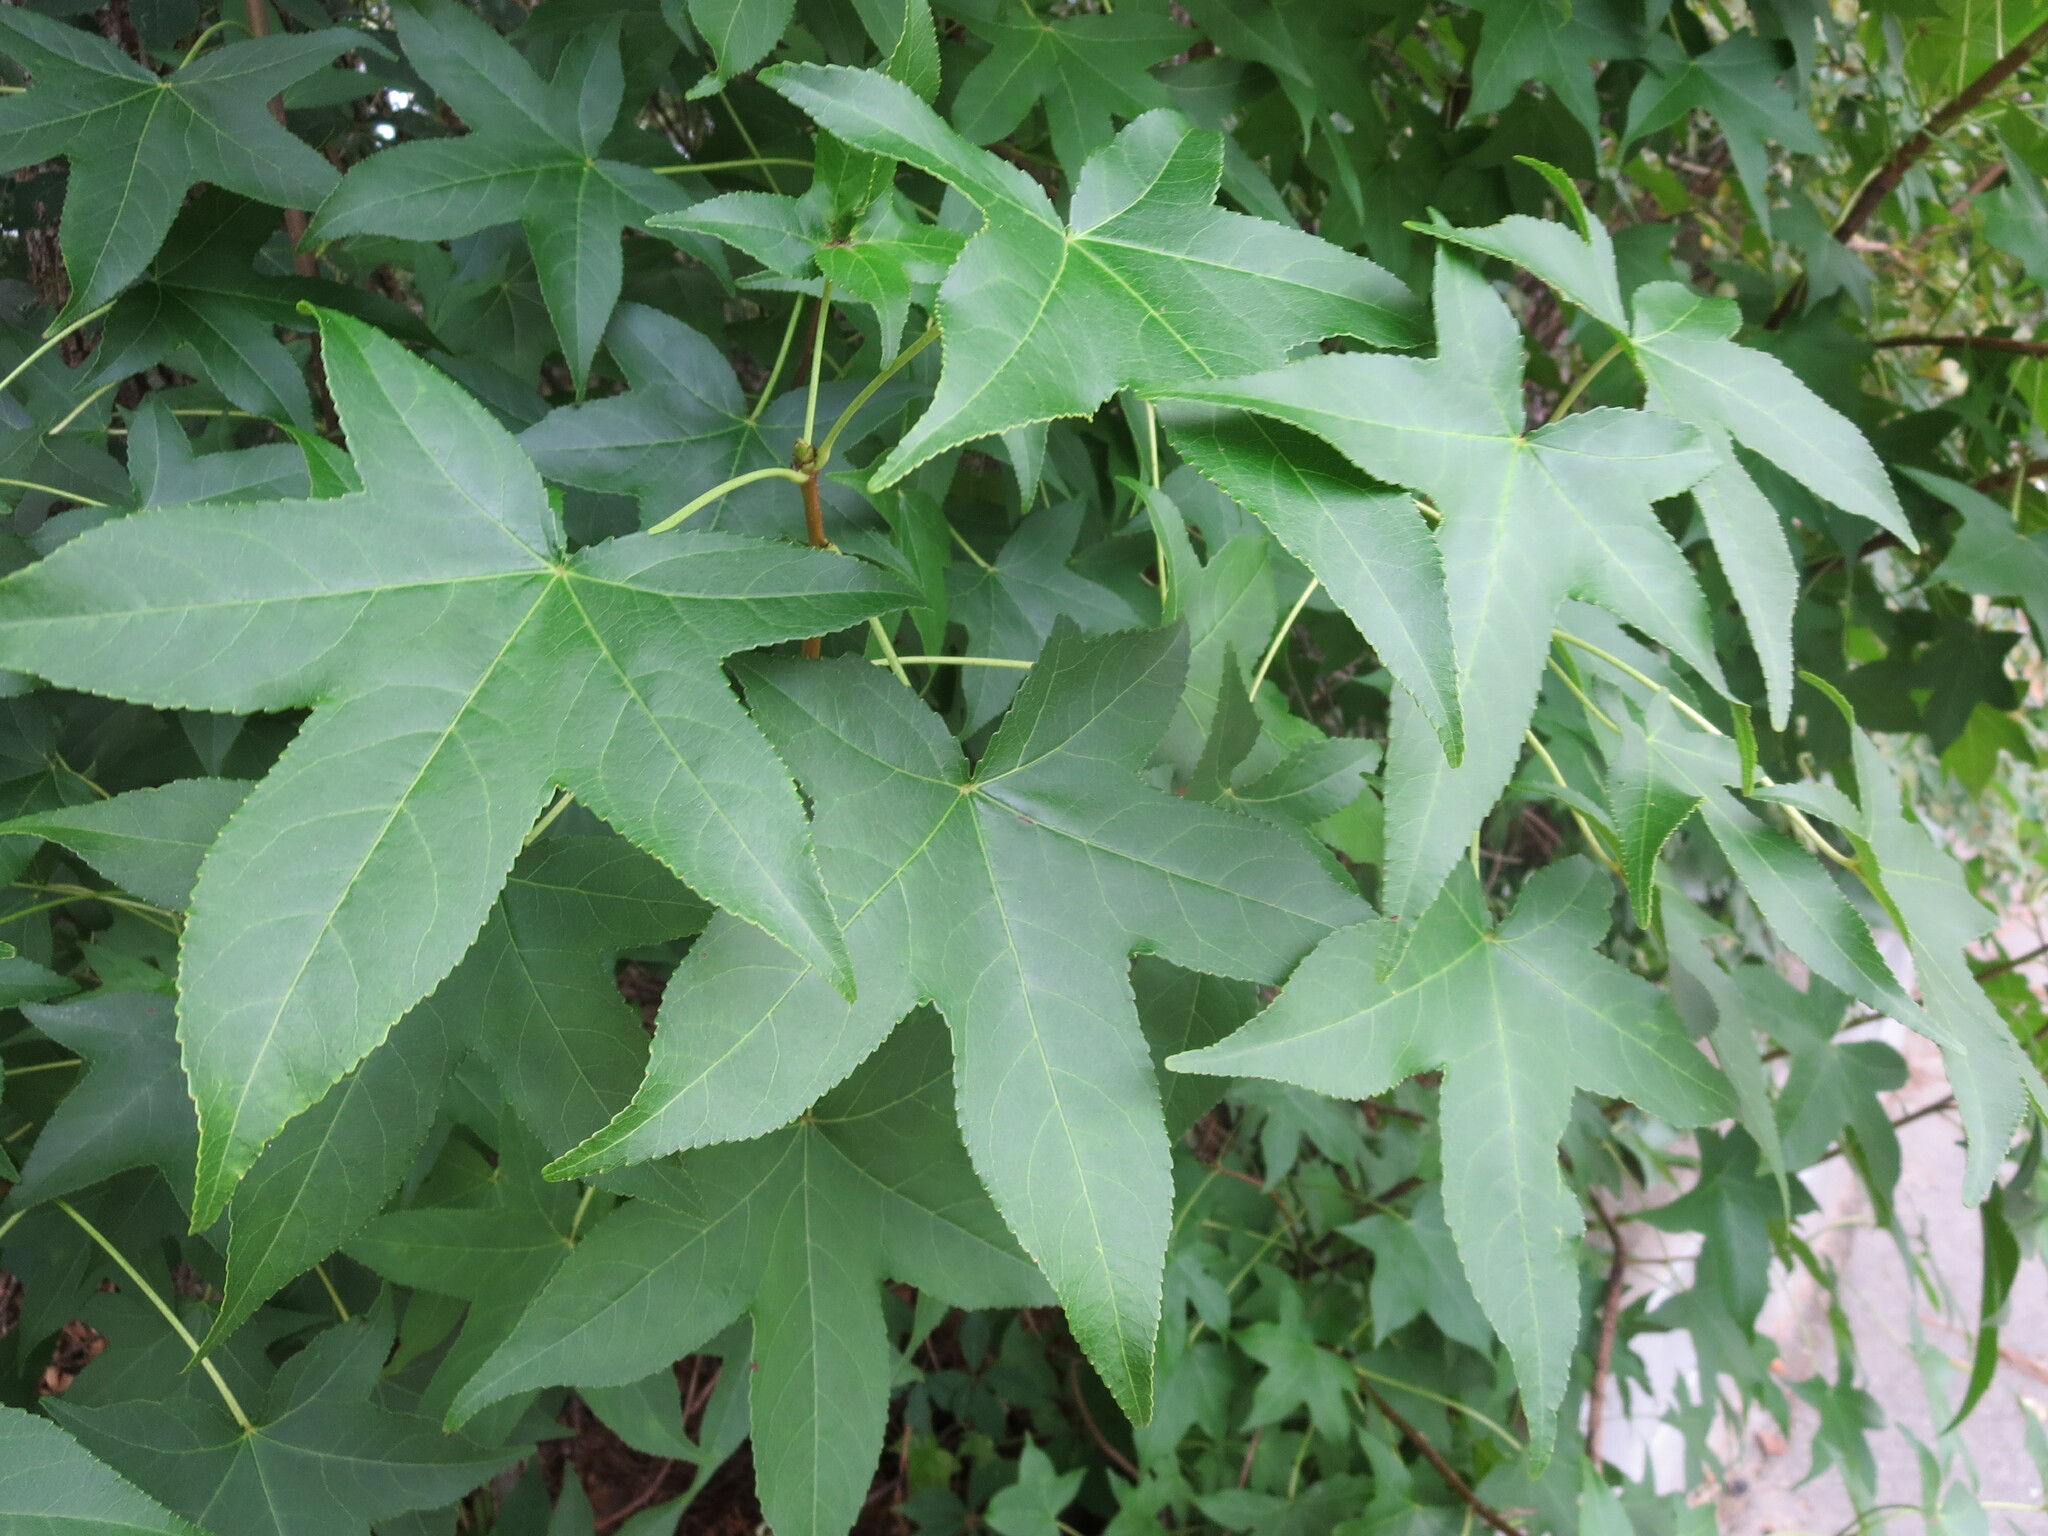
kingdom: Plantae
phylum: Tracheophyta
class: Magnoliopsida
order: Saxifragales
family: Altingiaceae
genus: Liquidambar
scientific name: Liquidambar styraciflua
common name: Sweet gum
